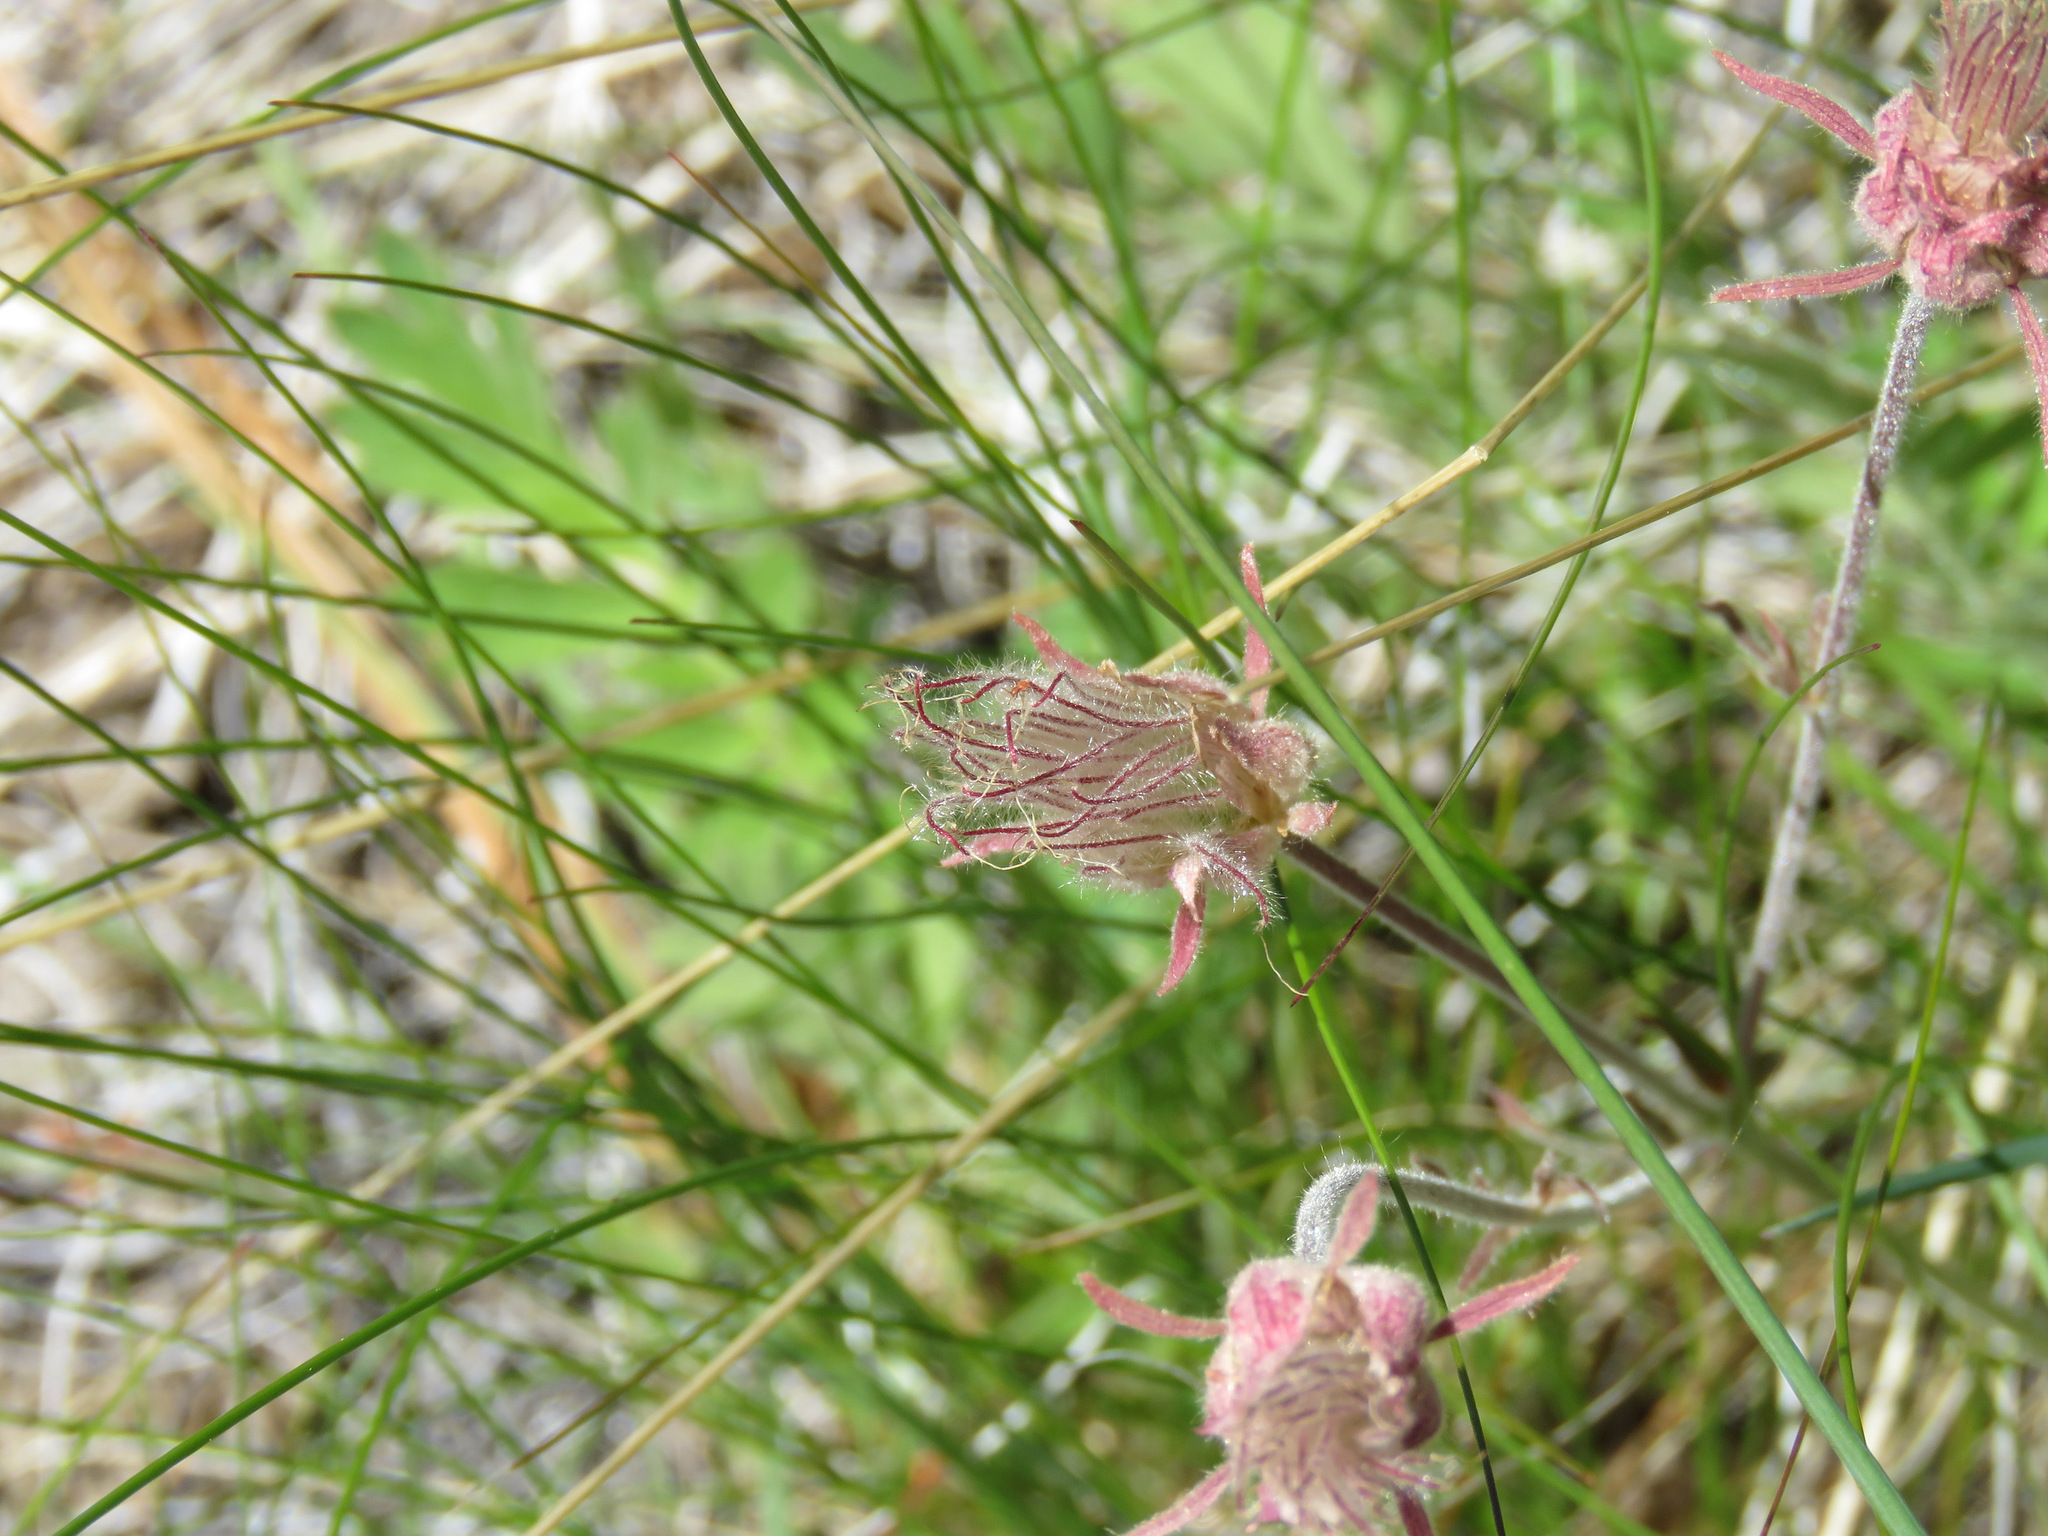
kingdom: Plantae
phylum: Tracheophyta
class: Magnoliopsida
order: Rosales
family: Rosaceae
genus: Geum
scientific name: Geum triflorum
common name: Old man's whiskers
